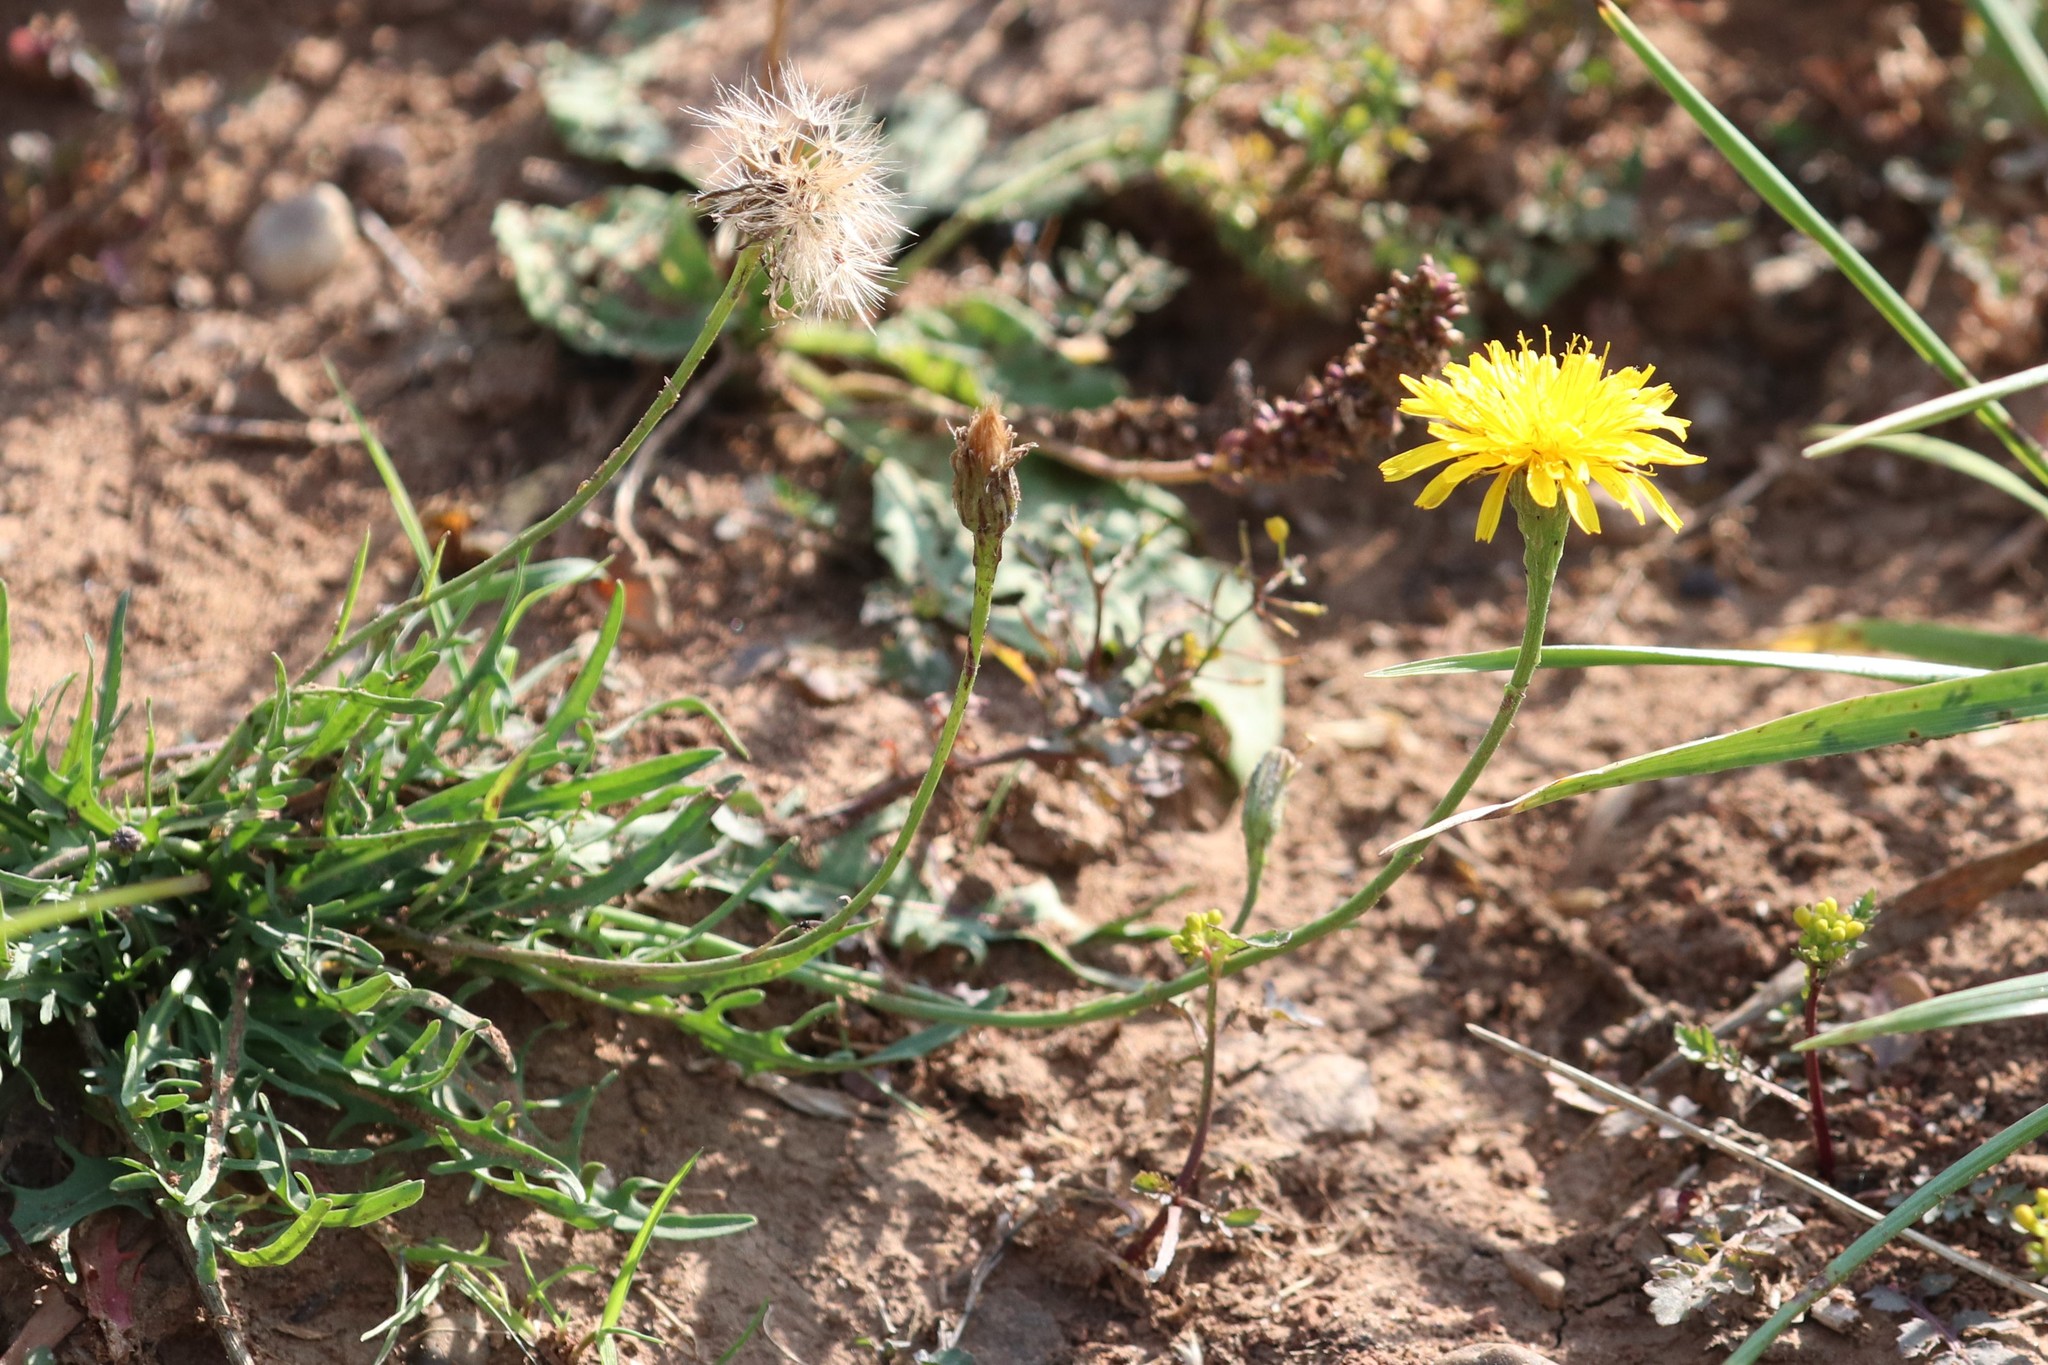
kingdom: Plantae
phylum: Tracheophyta
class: Magnoliopsida
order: Asterales
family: Asteraceae
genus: Scorzoneroides
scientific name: Scorzoneroides autumnalis
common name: Autumn hawkbit
